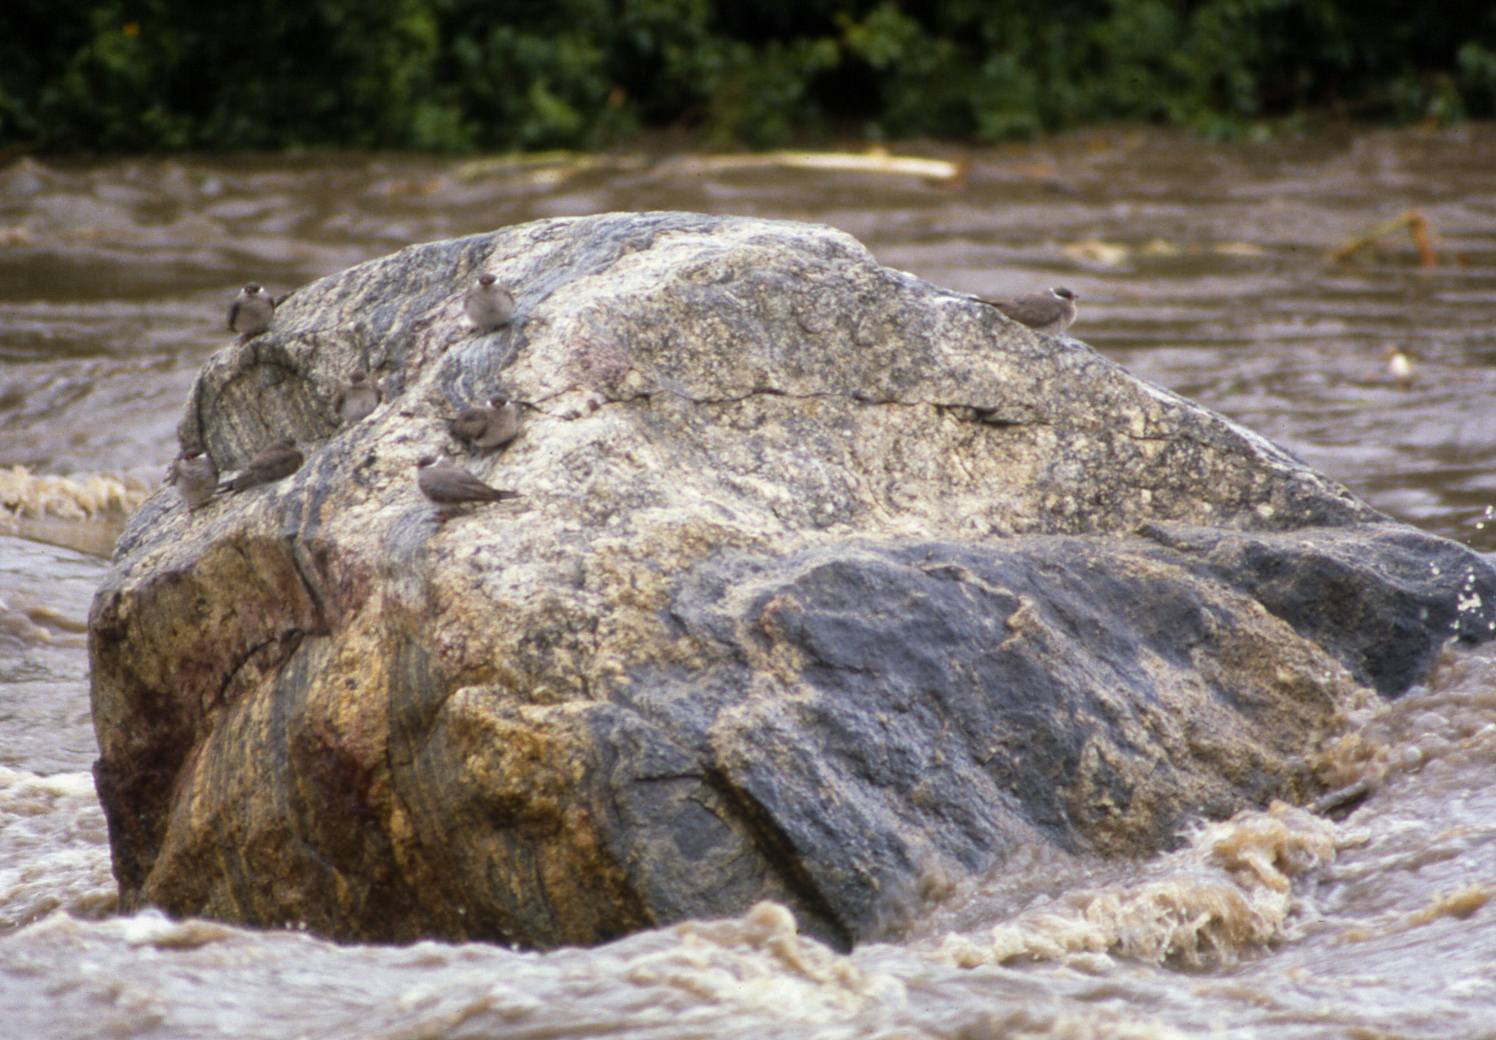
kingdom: Animalia
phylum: Chordata
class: Aves
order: Charadriiformes
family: Glareolidae
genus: Glareola
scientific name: Glareola nuchalis
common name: Rock pratincole
